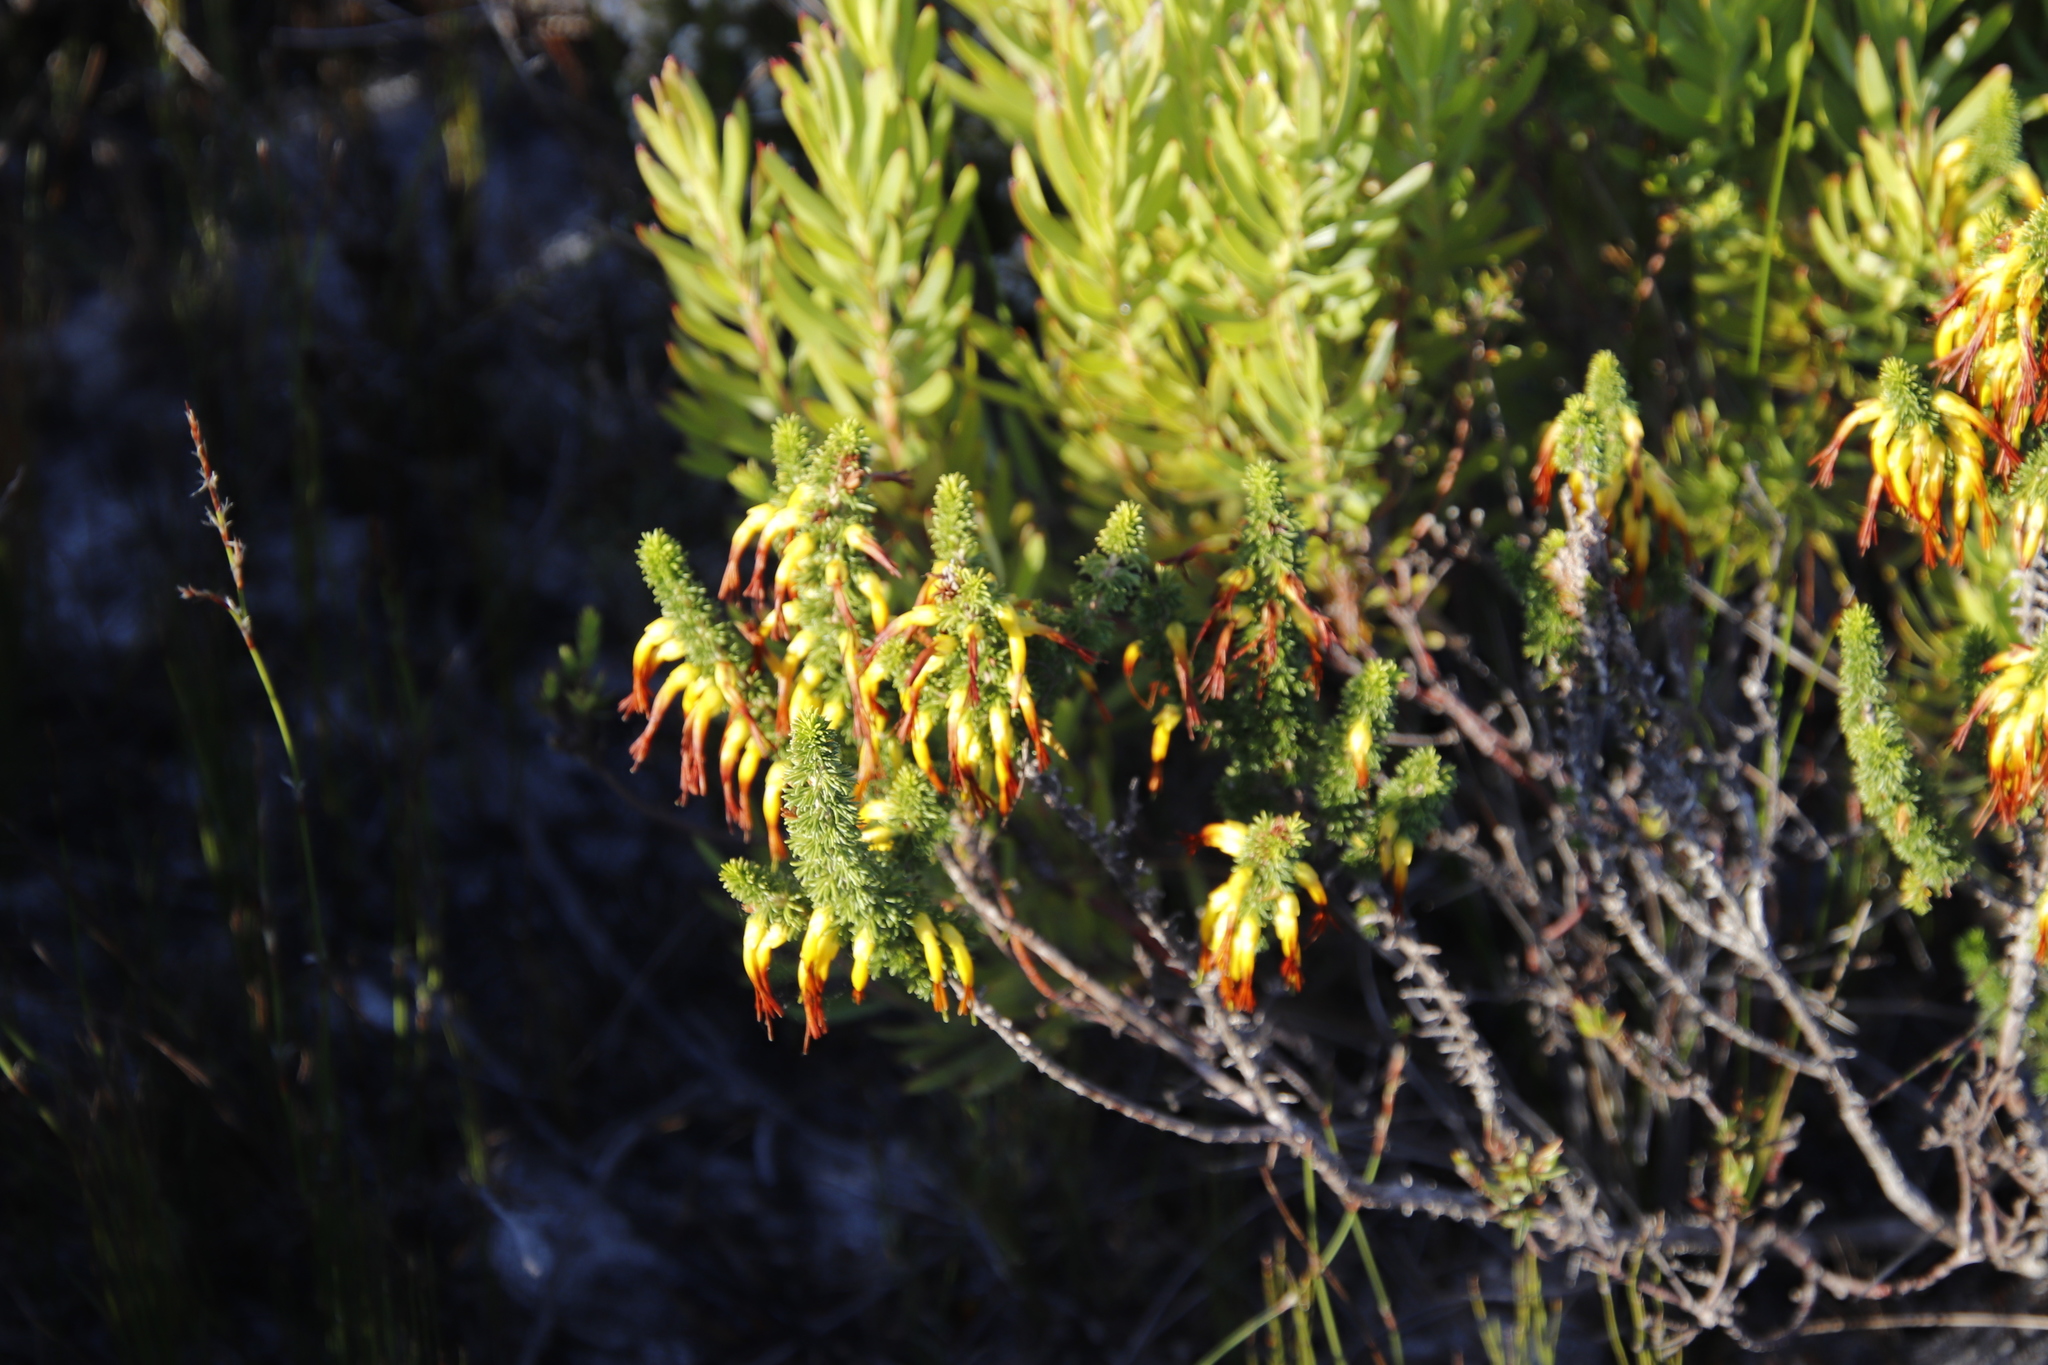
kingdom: Plantae
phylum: Tracheophyta
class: Magnoliopsida
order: Ericales
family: Ericaceae
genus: Erica
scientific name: Erica coccinea
